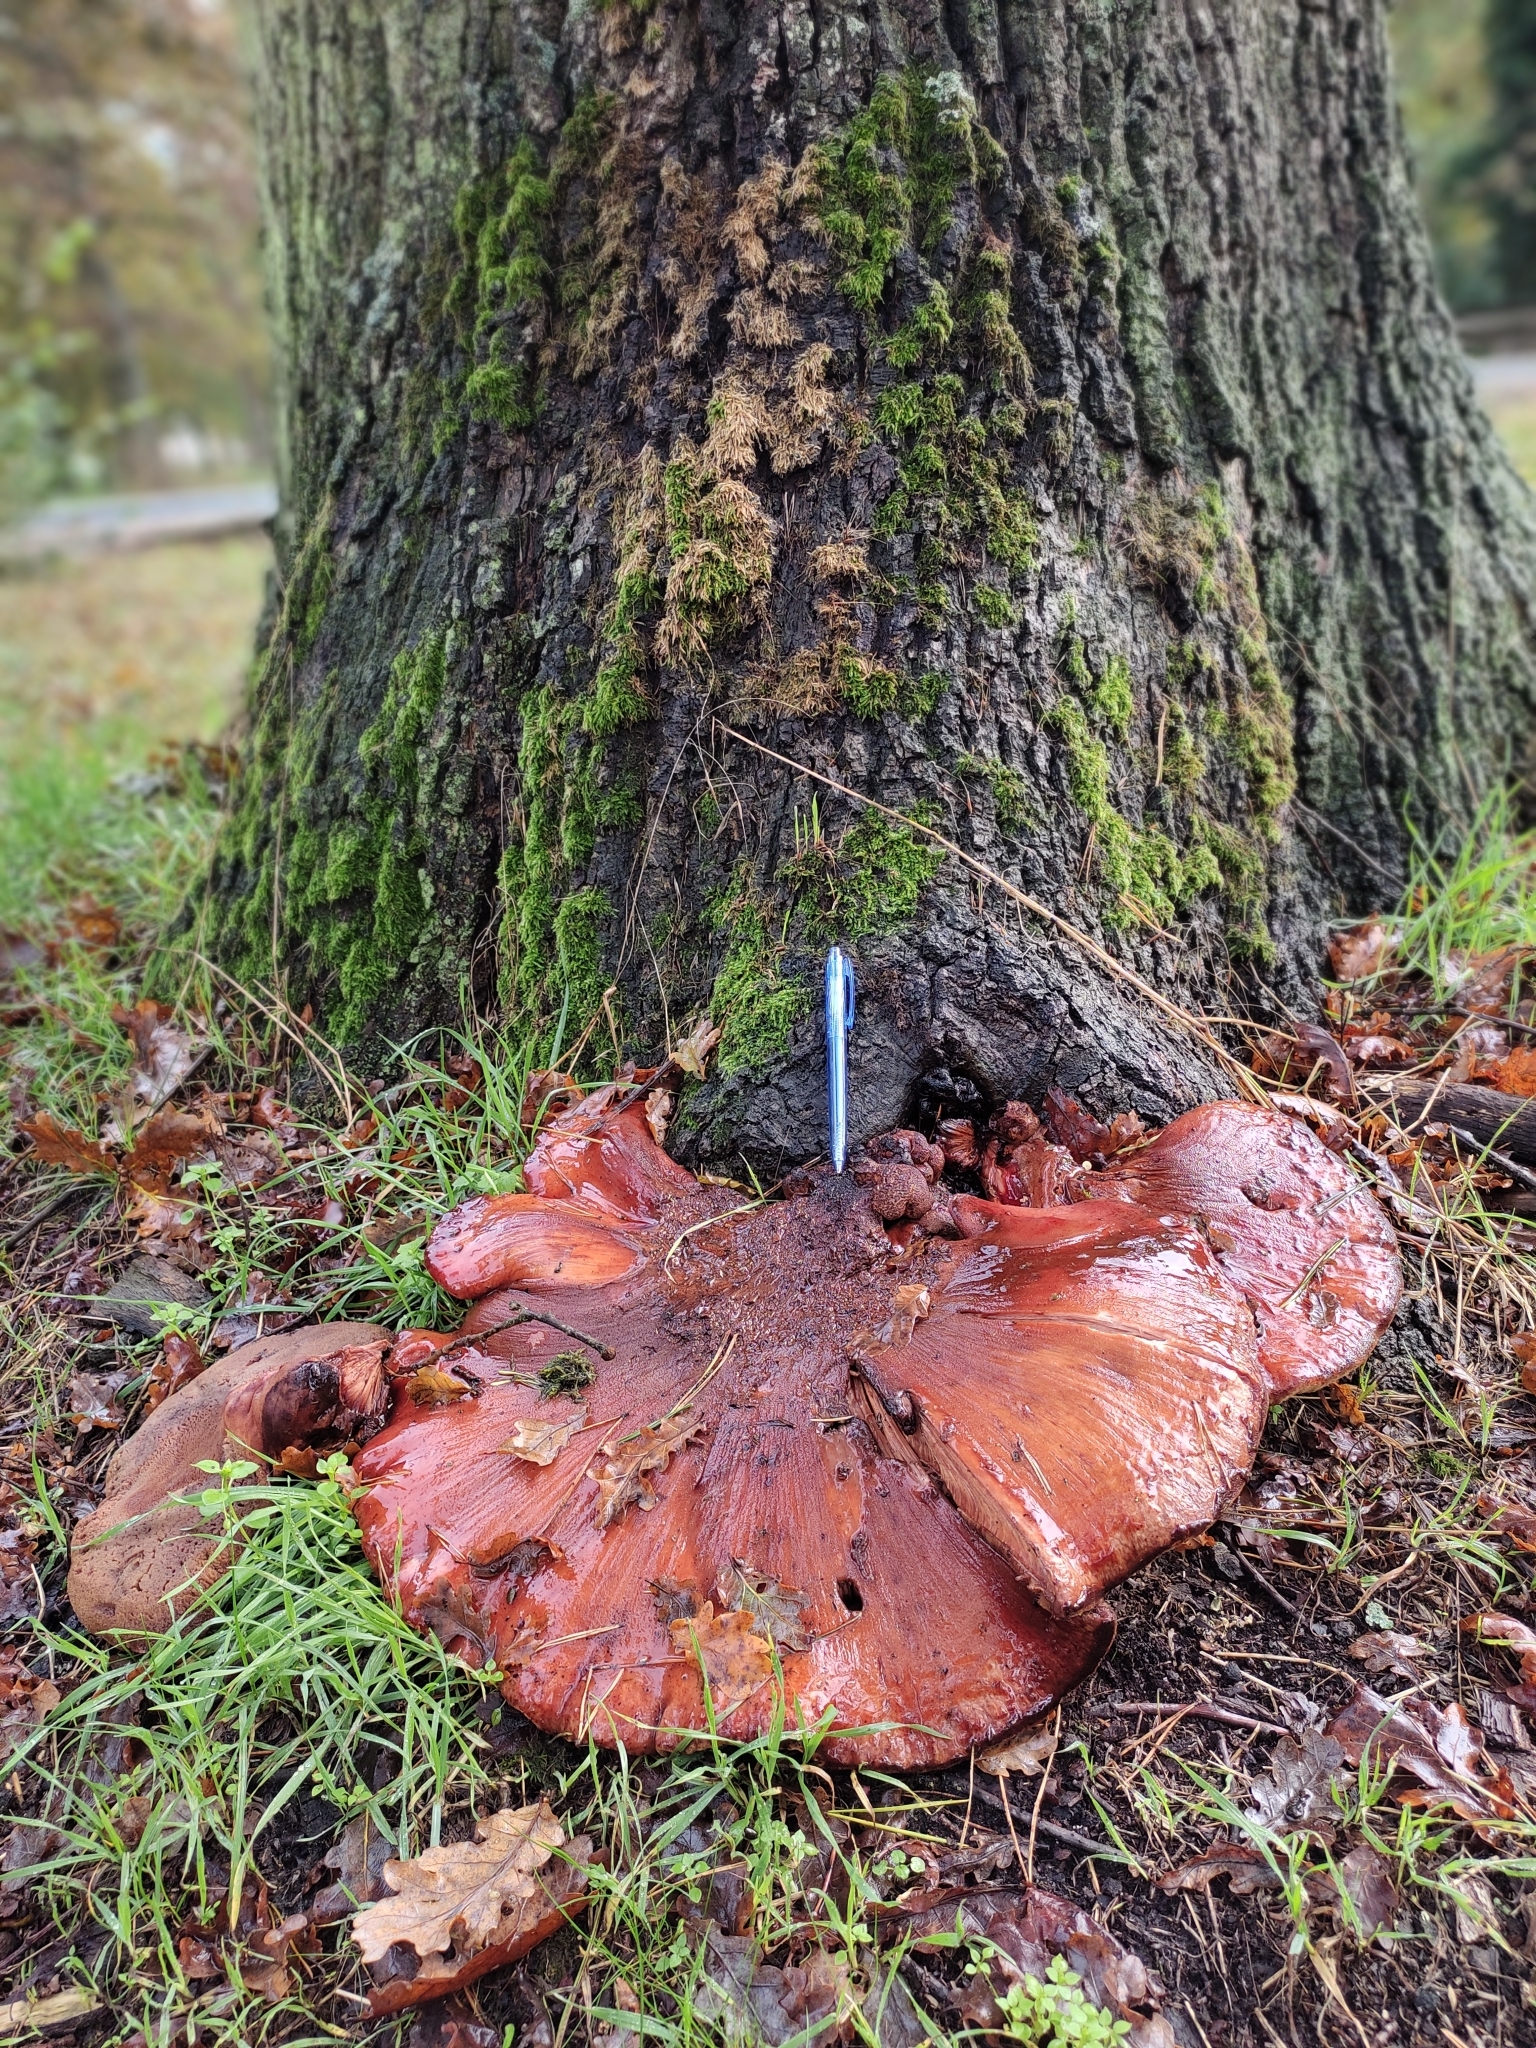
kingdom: Fungi
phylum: Basidiomycota
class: Agaricomycetes
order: Agaricales
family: Fistulinaceae
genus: Fistulina
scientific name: Fistulina hepatica
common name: Beef-steak fungus
